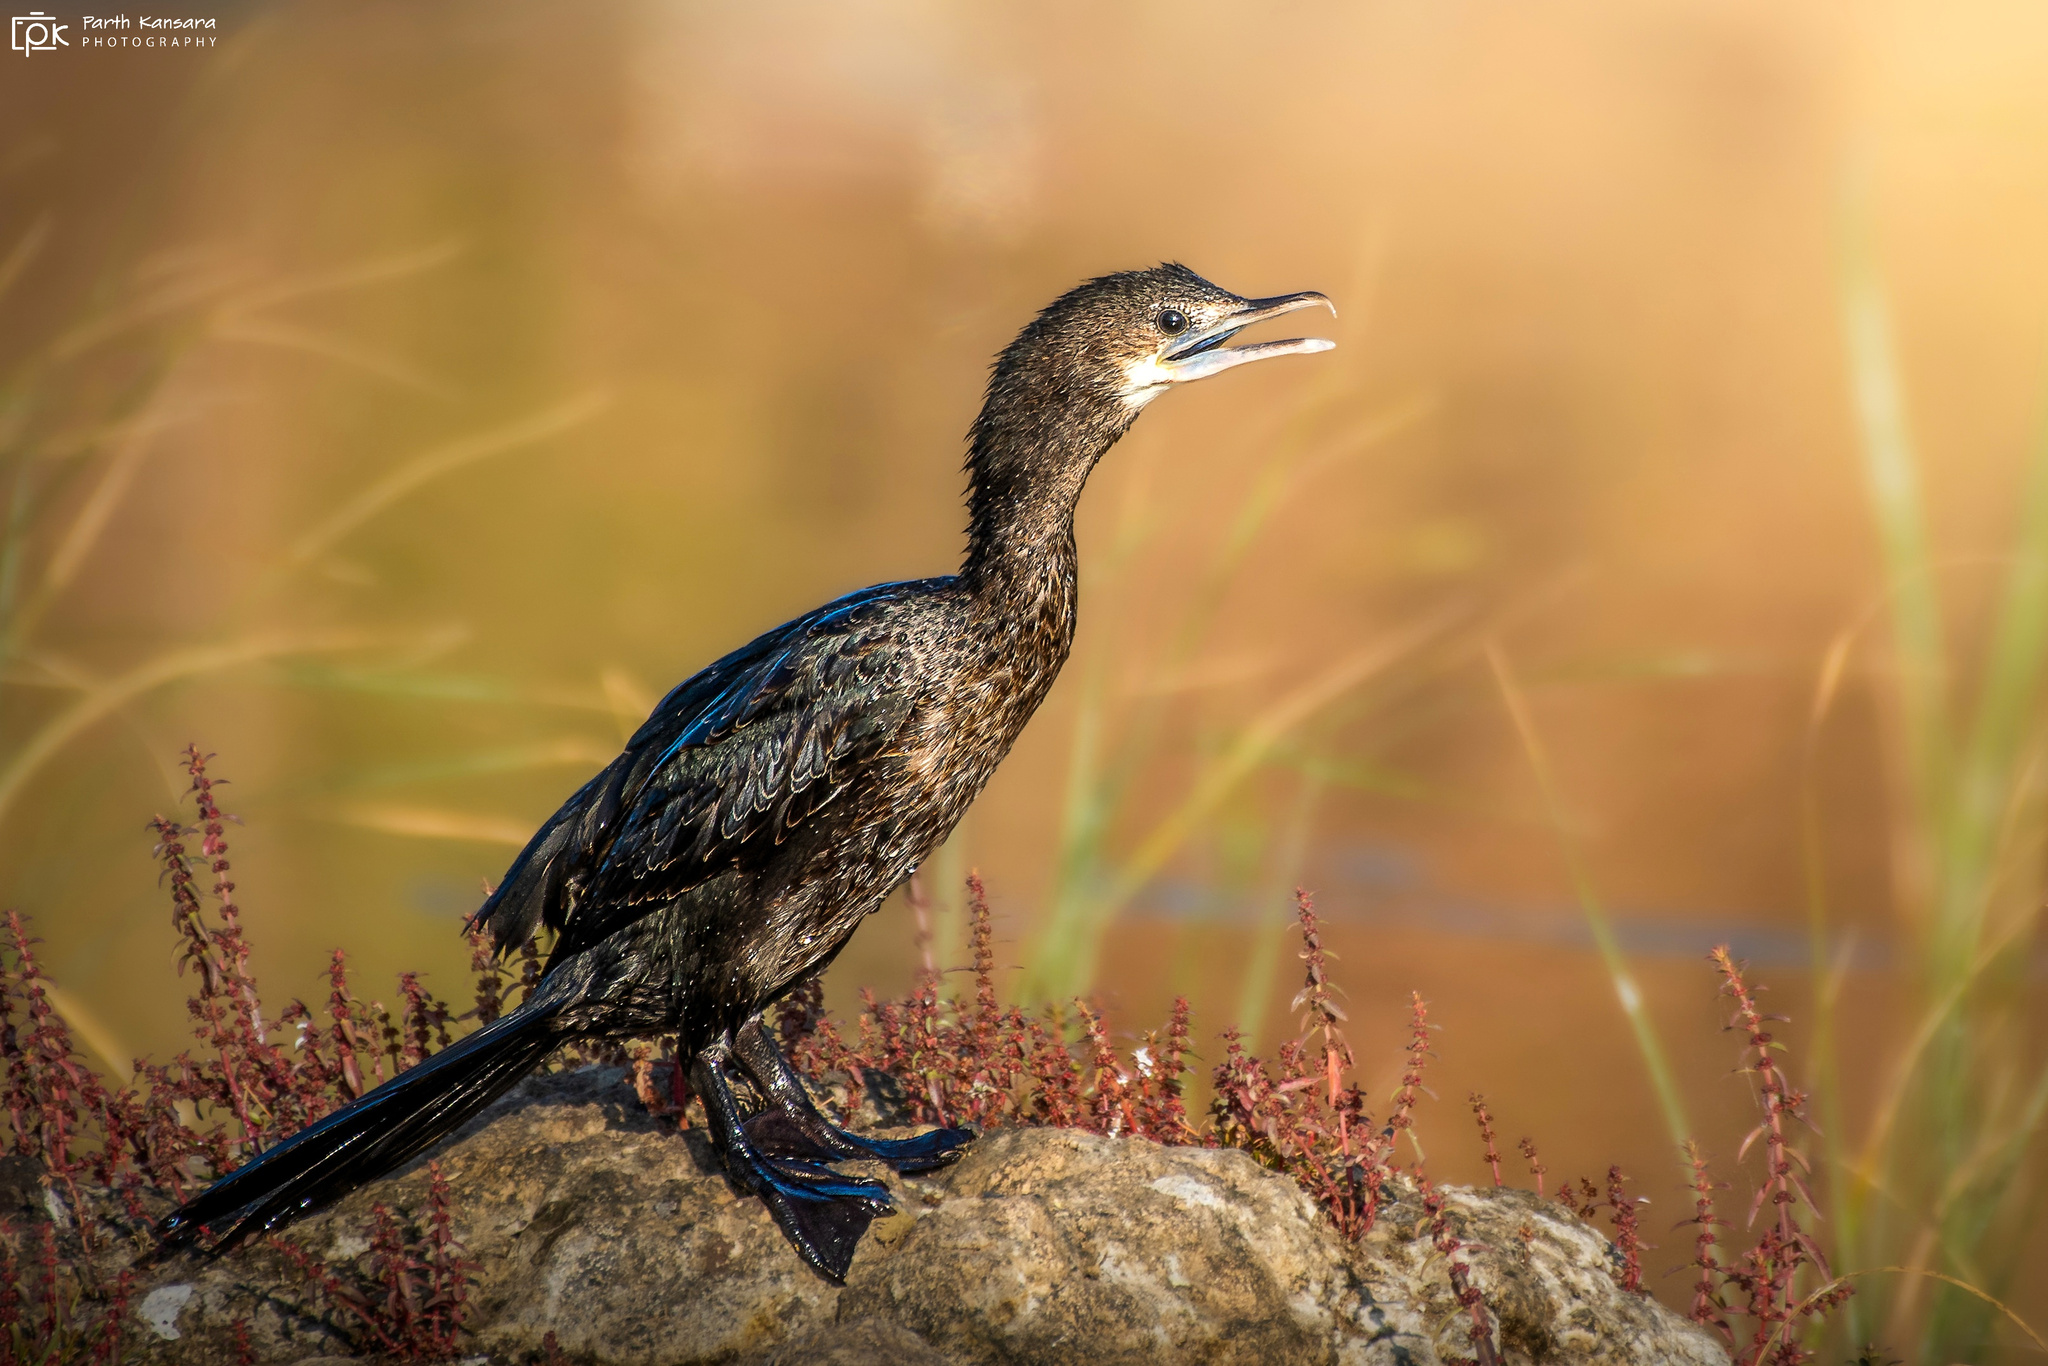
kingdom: Animalia
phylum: Chordata
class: Aves
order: Suliformes
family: Phalacrocoracidae
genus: Microcarbo
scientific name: Microcarbo niger
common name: Little cormorant
